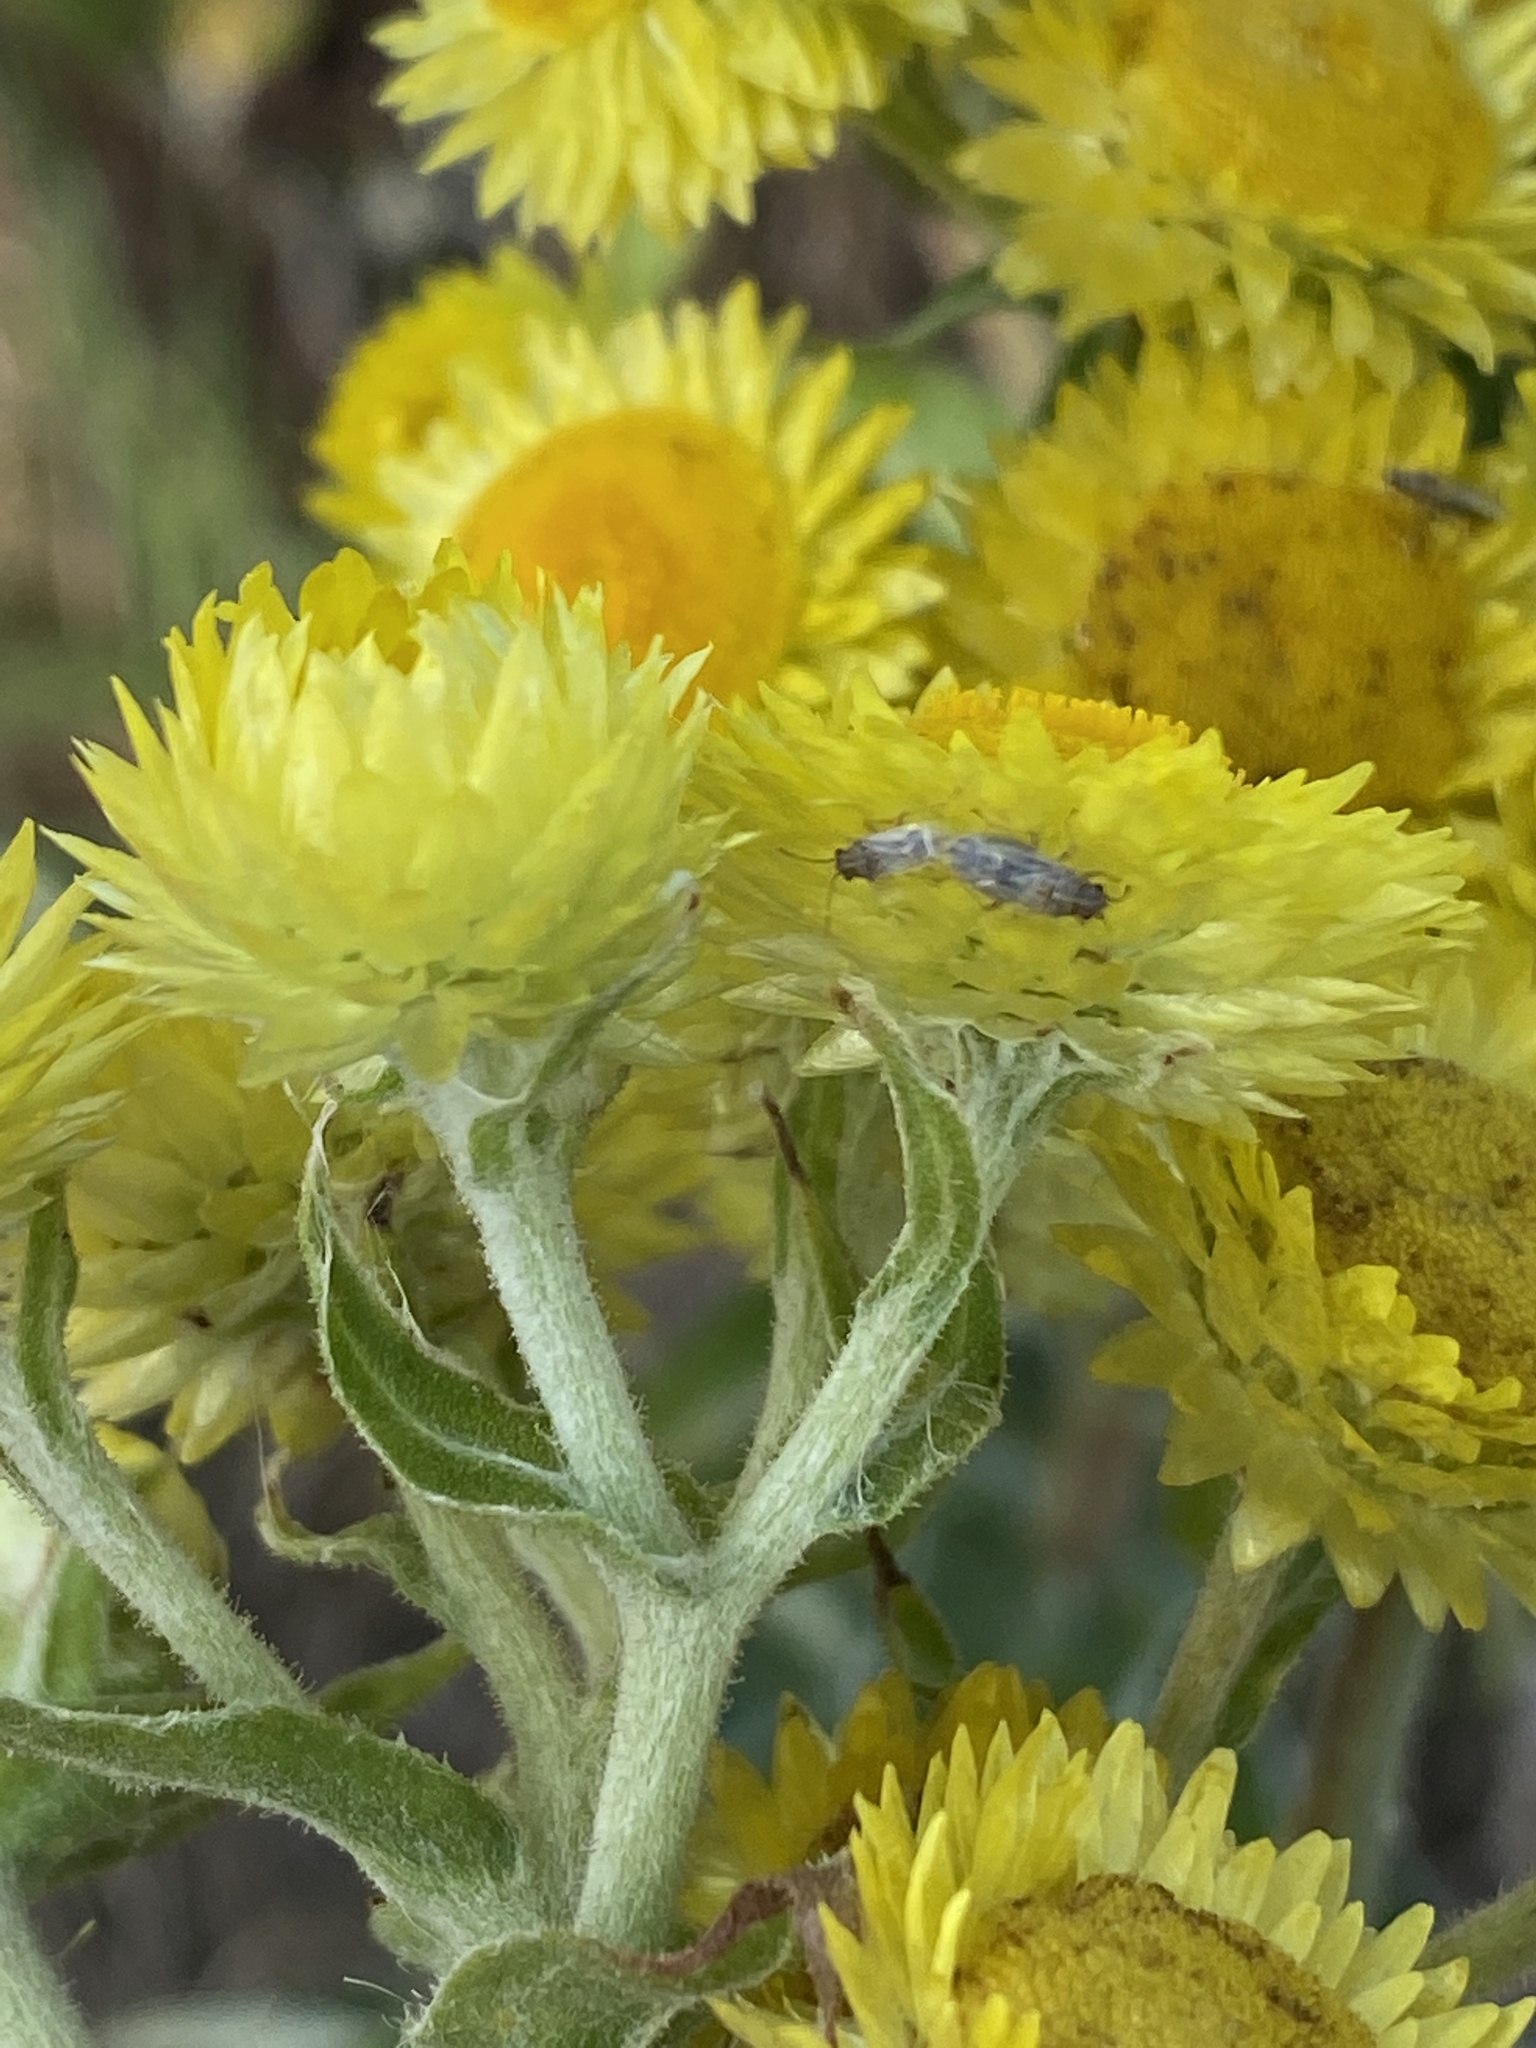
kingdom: Plantae
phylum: Tracheophyta
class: Magnoliopsida
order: Asterales
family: Asteraceae
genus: Helichrysum
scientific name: Helichrysum foetidum
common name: Stinking everlasting
